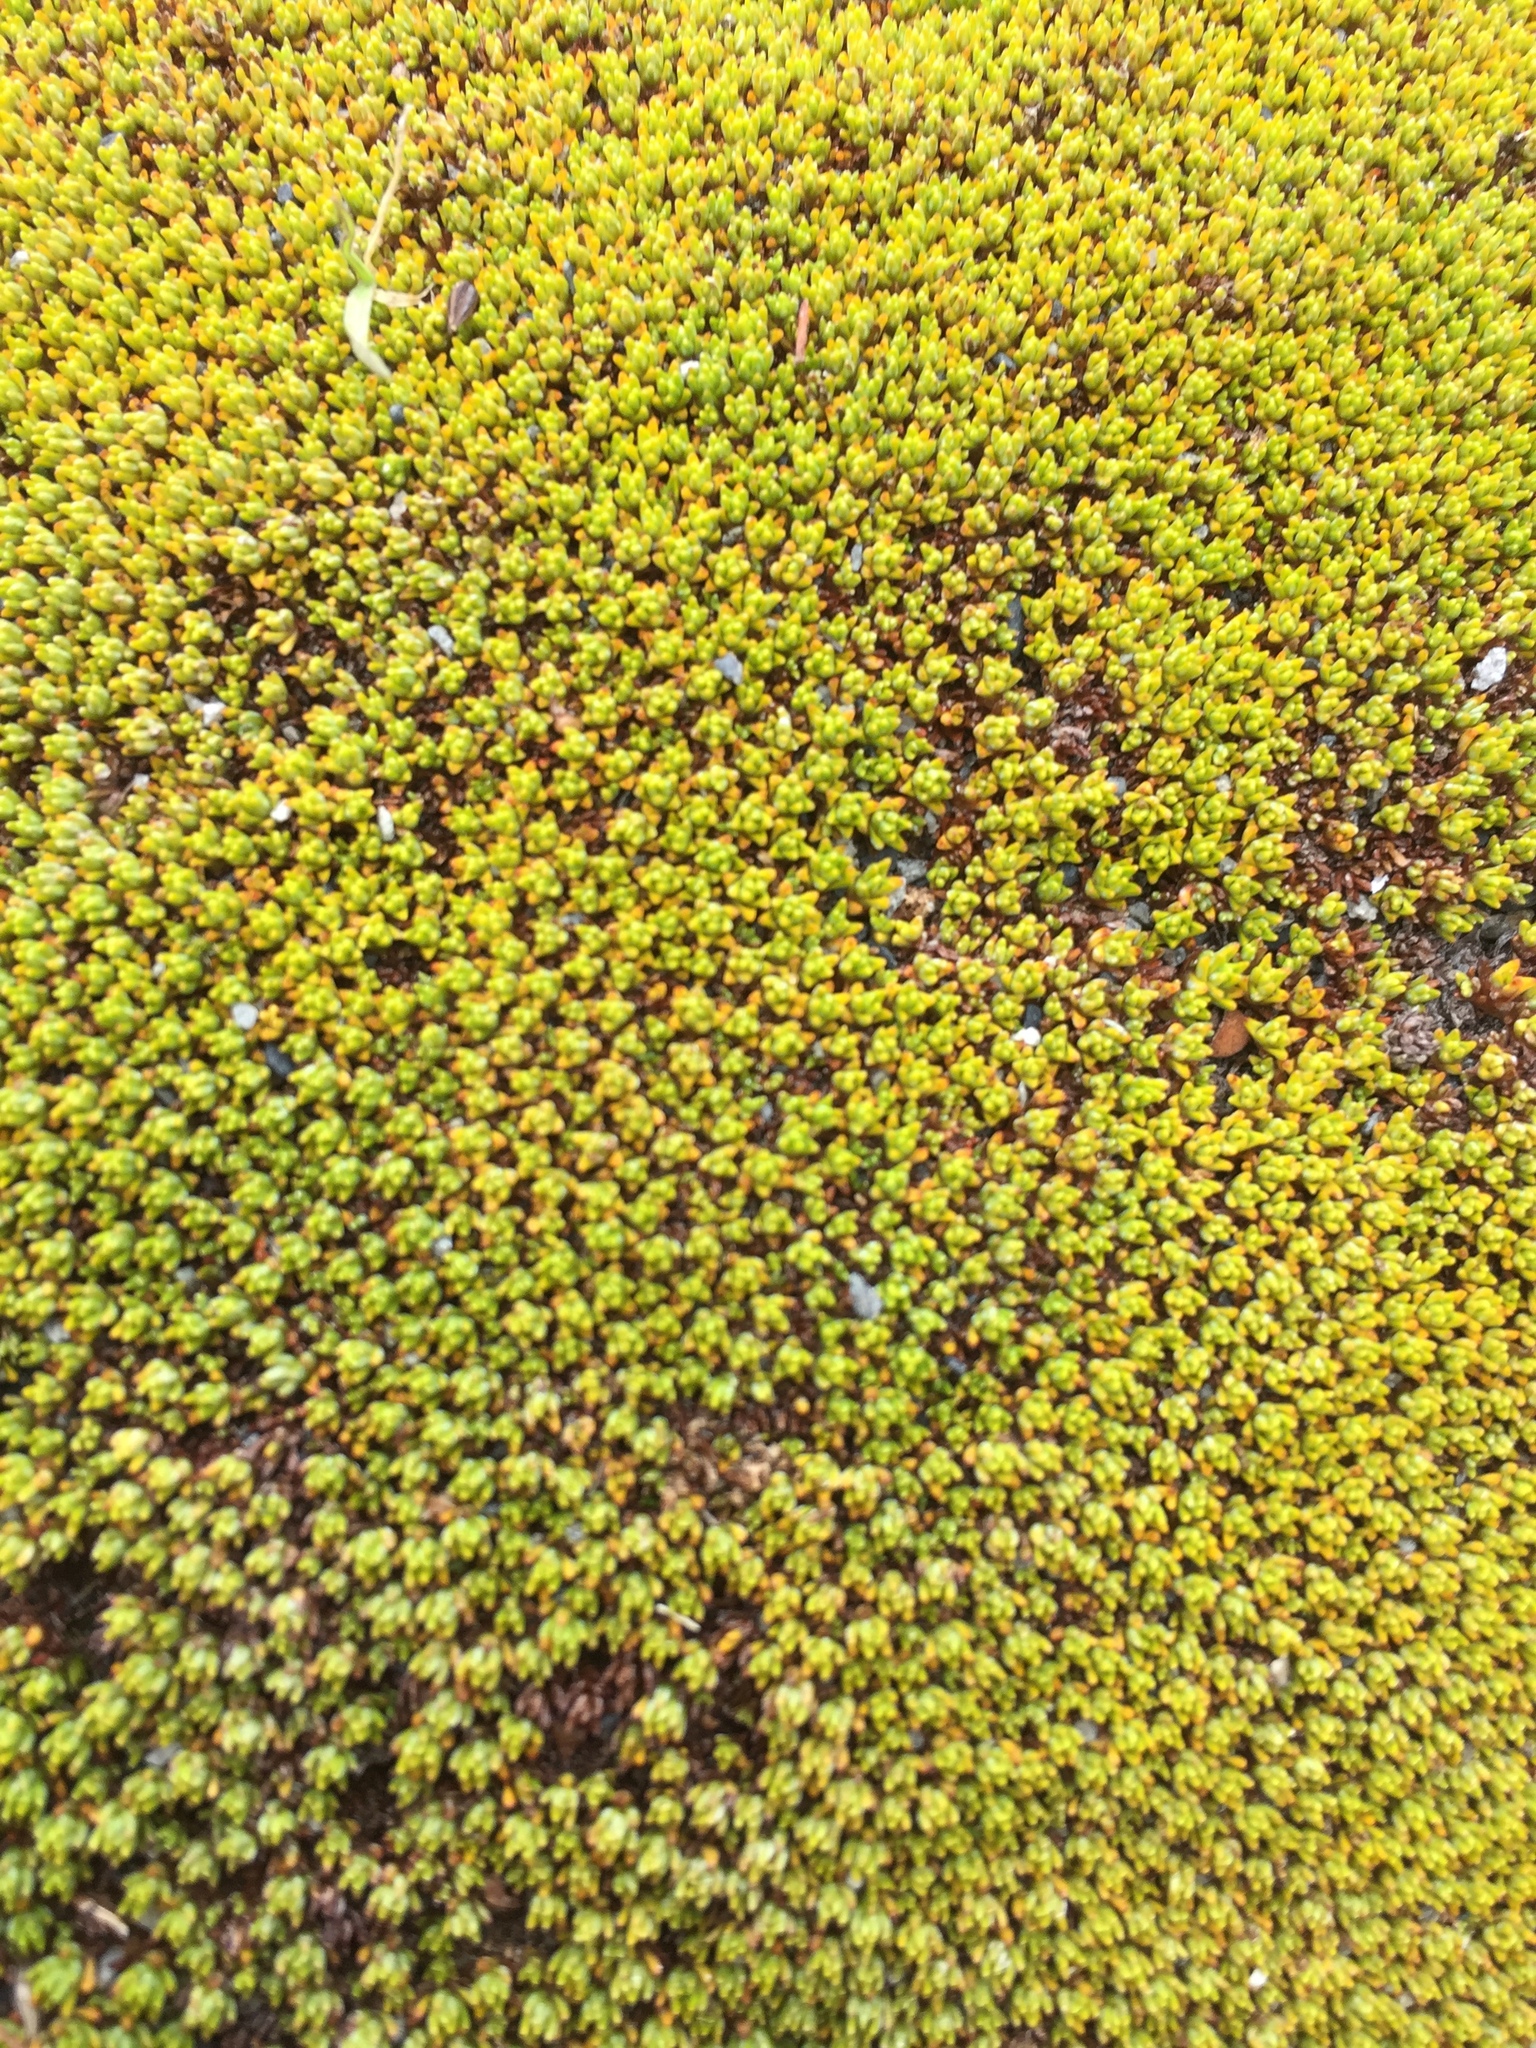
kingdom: Plantae
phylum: Tracheophyta
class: Magnoliopsida
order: Asterales
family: Asteraceae
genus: Raoulia
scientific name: Raoulia haastii
